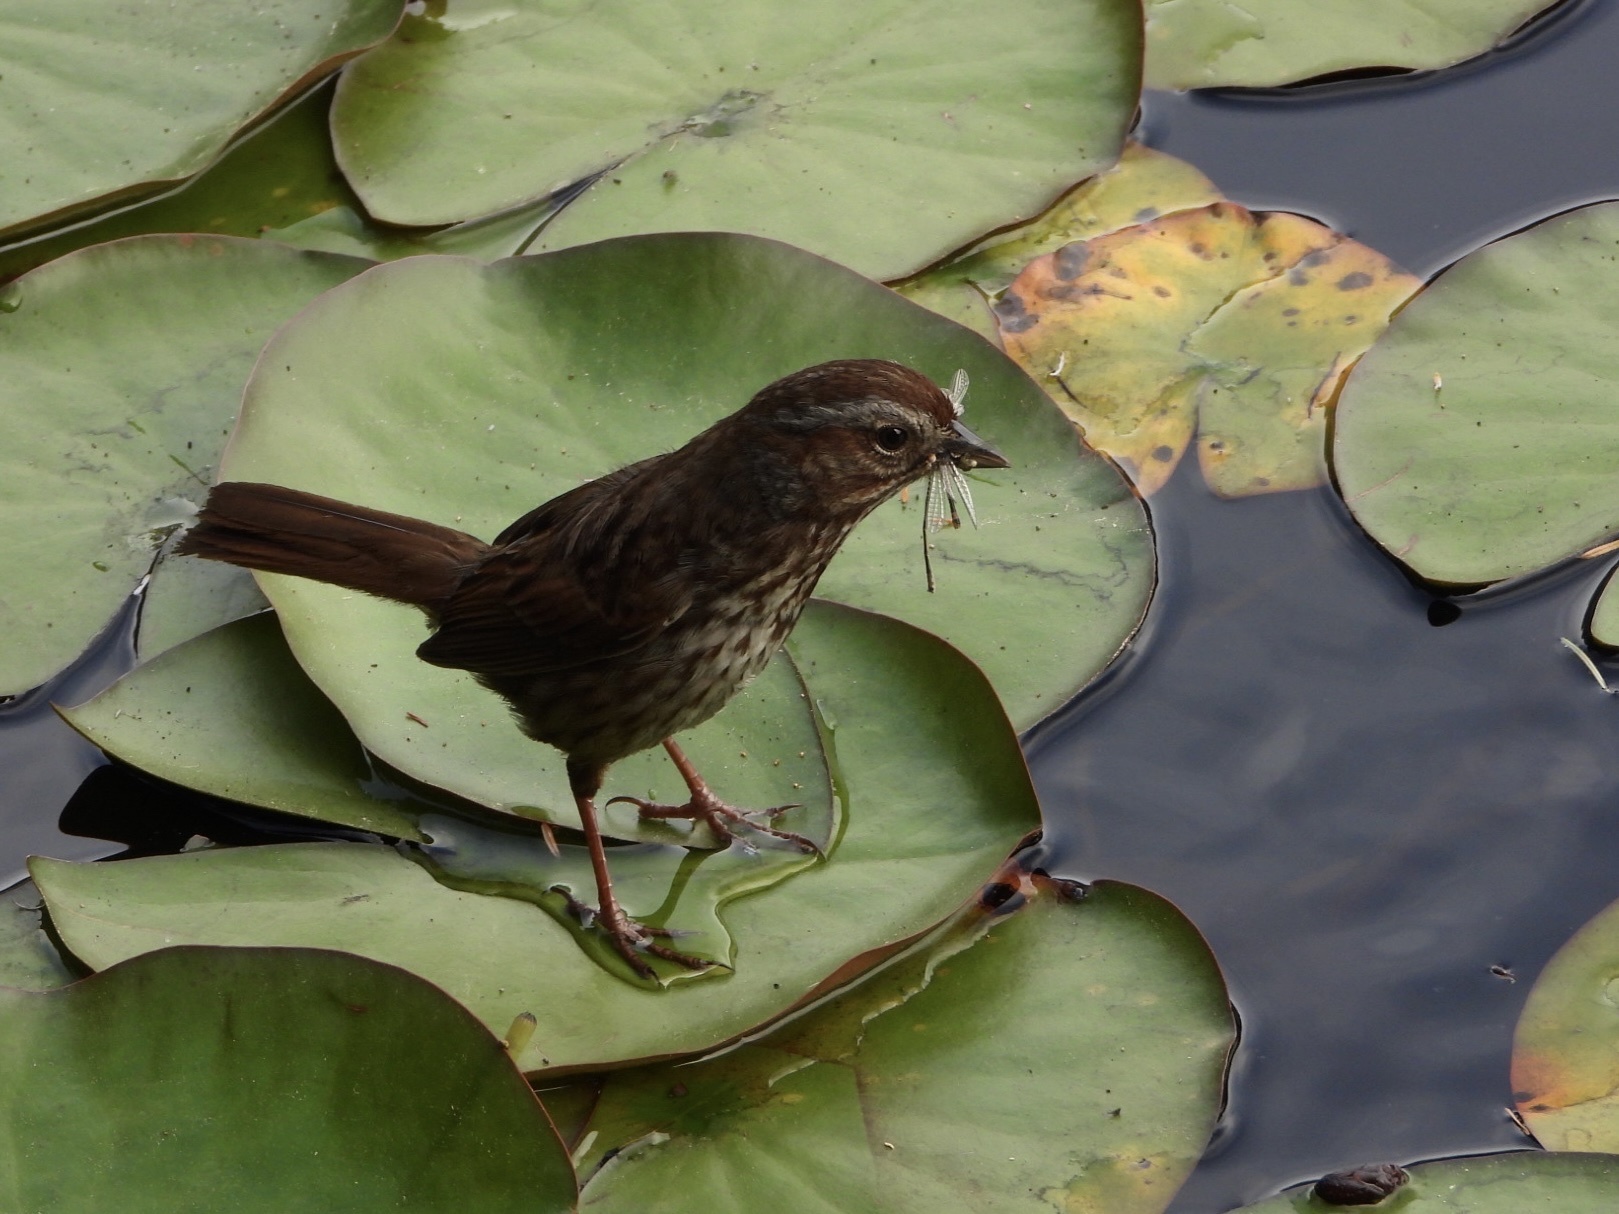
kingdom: Animalia
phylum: Arthropoda
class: Insecta
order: Odonata
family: Coenagrionidae
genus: Ischnura
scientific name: Ischnura cervula
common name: Pacific forktail
